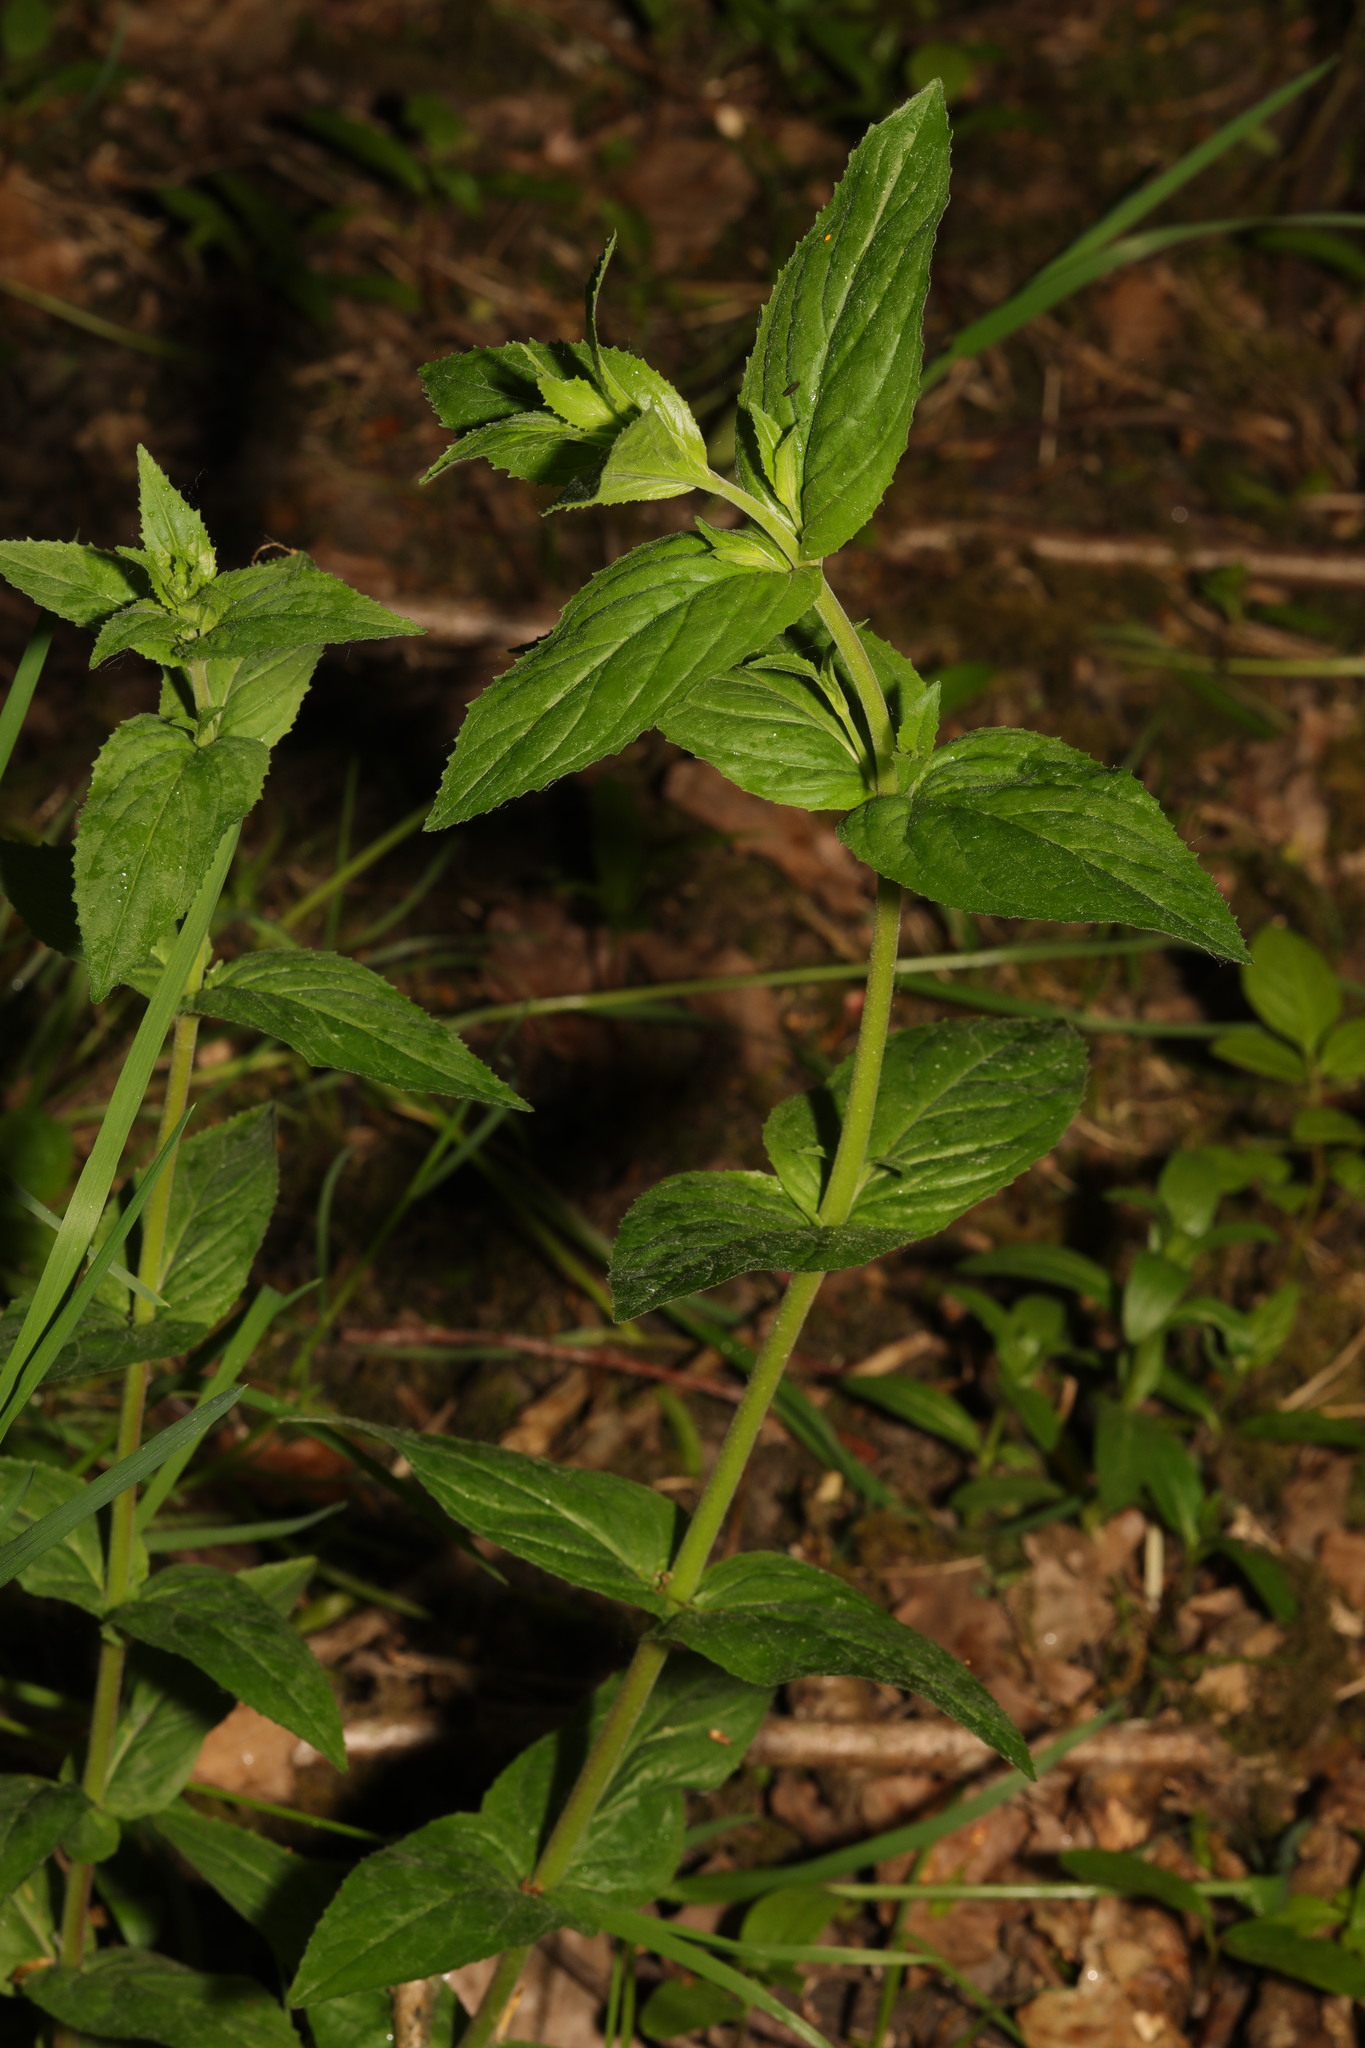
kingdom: Plantae
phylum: Tracheophyta
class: Magnoliopsida
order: Myrtales
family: Onagraceae
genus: Epilobium
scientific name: Epilobium montanum
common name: Broad-leaved willowherb
